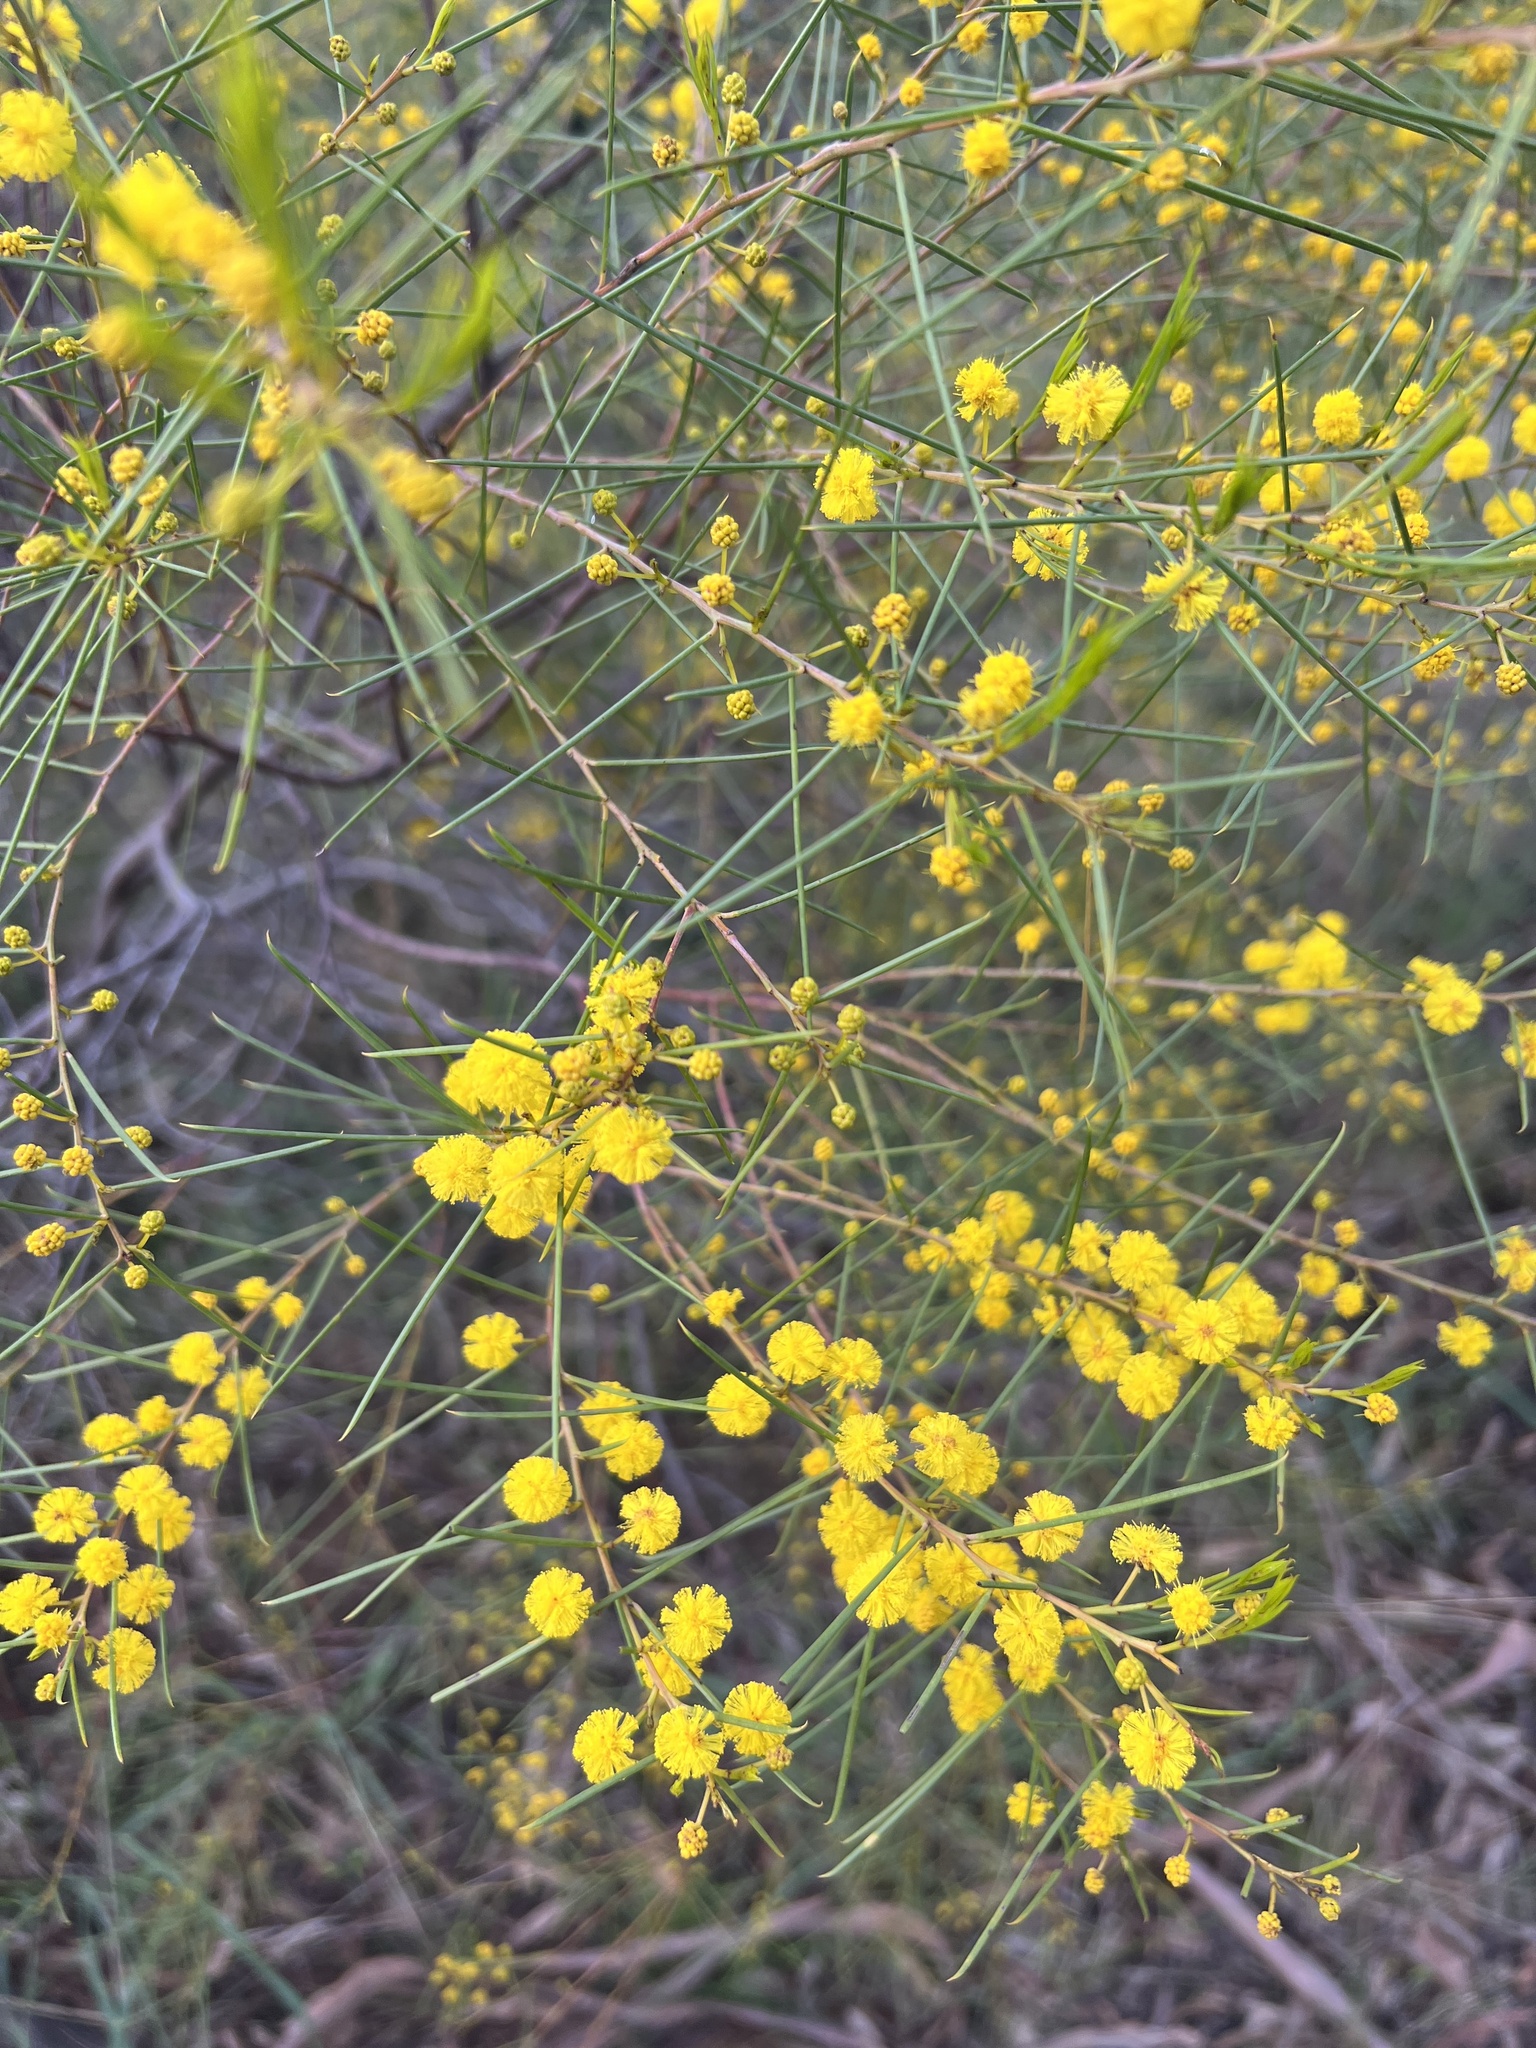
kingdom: Plantae
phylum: Tracheophyta
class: Magnoliopsida
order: Fabales
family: Fabaceae
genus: Acacia
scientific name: Acacia euthycarpa
